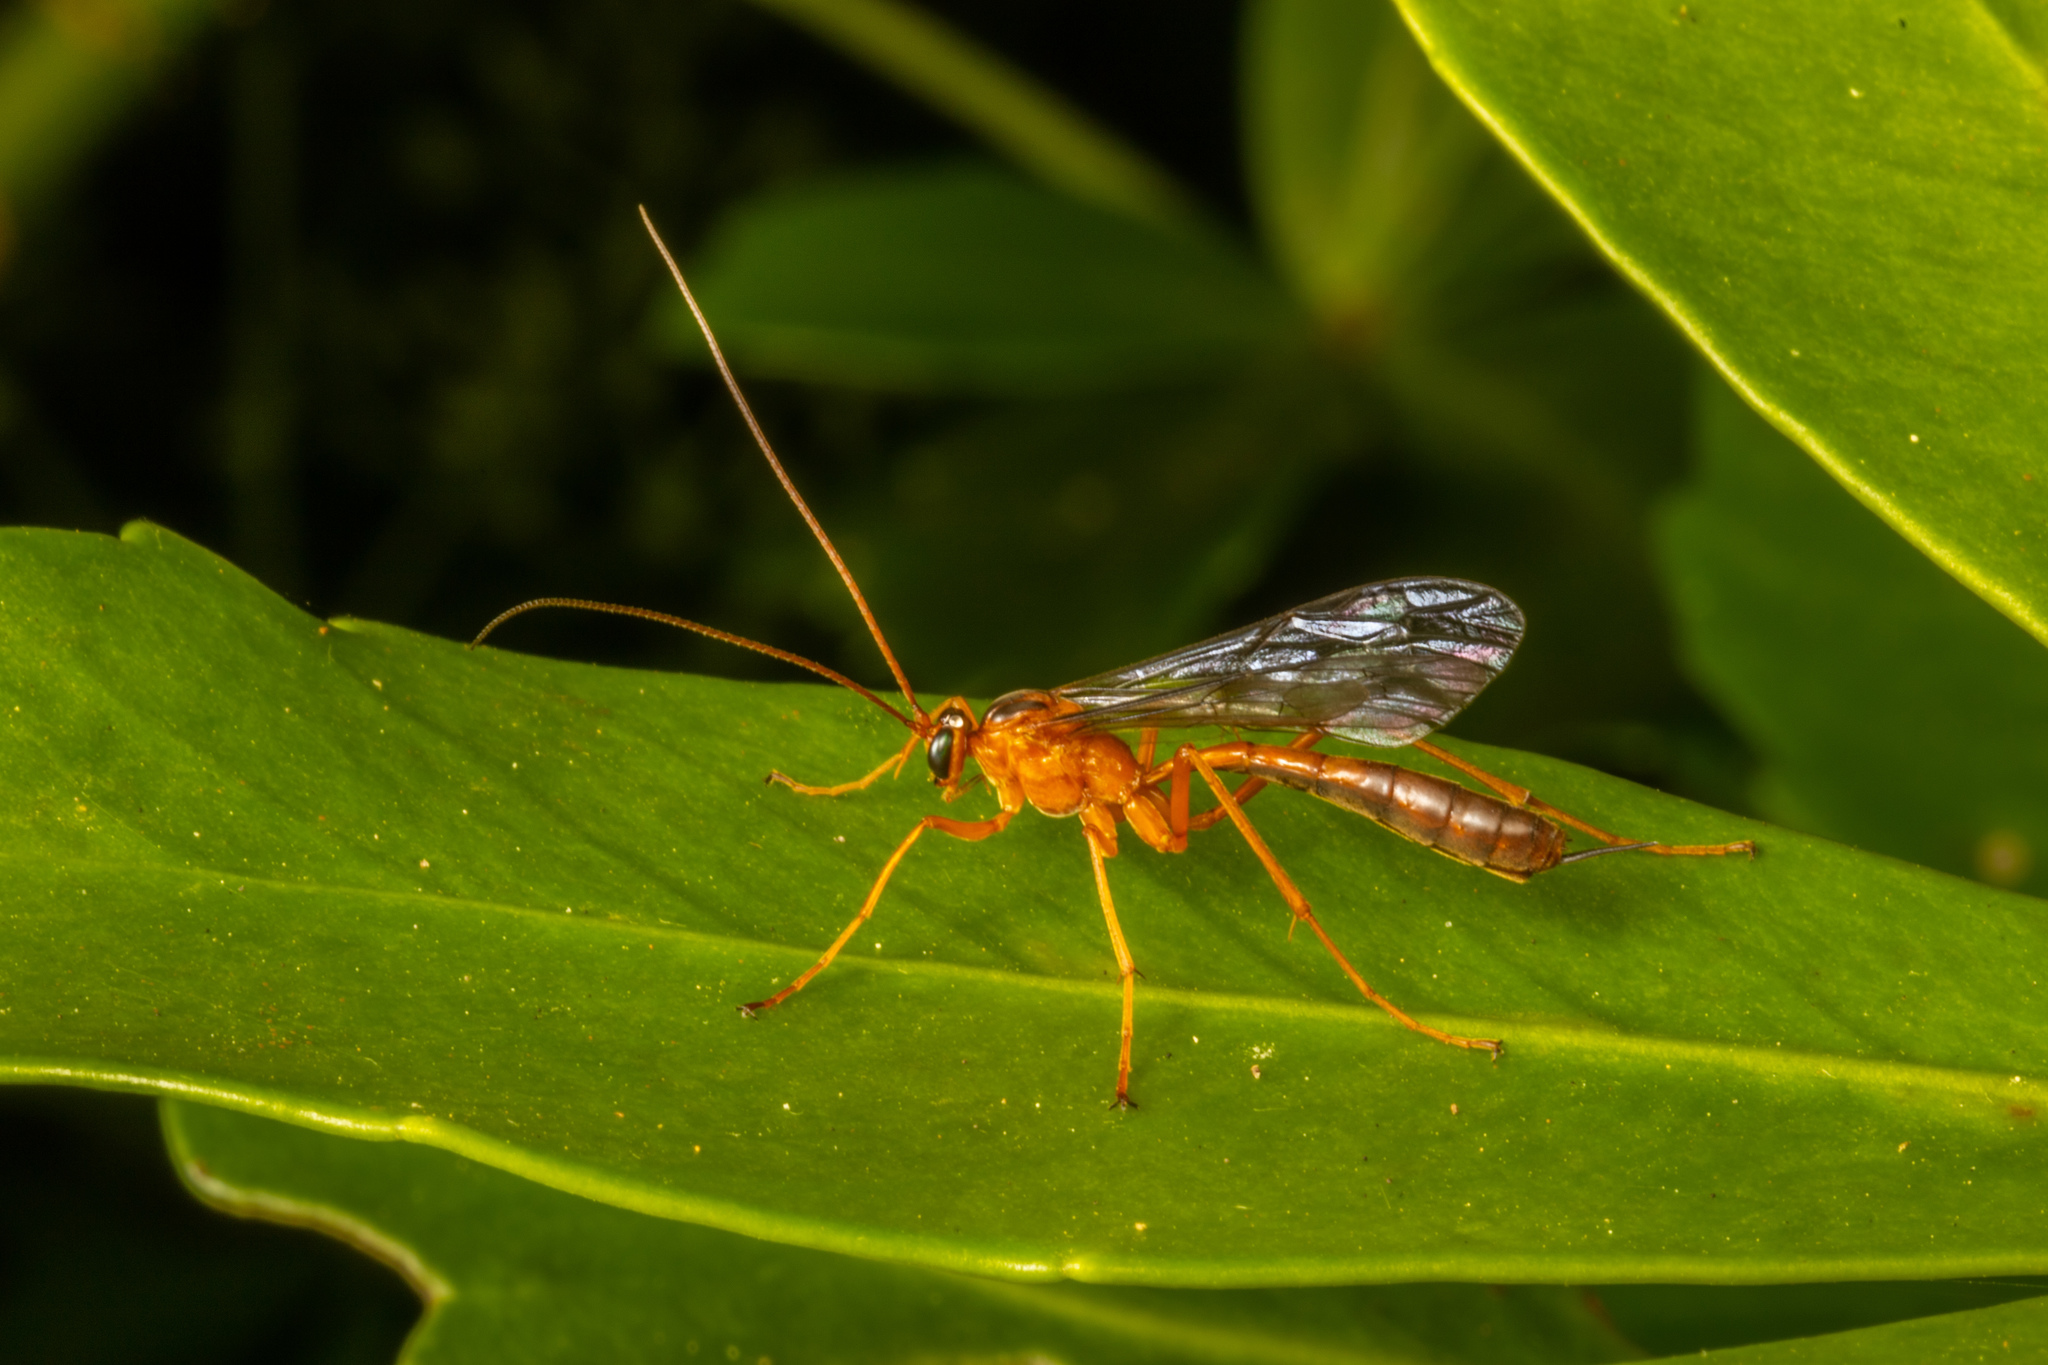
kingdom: Animalia
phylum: Arthropoda
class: Insecta
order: Hymenoptera
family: Ichneumonidae
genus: Netelia
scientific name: Netelia ephippiata
